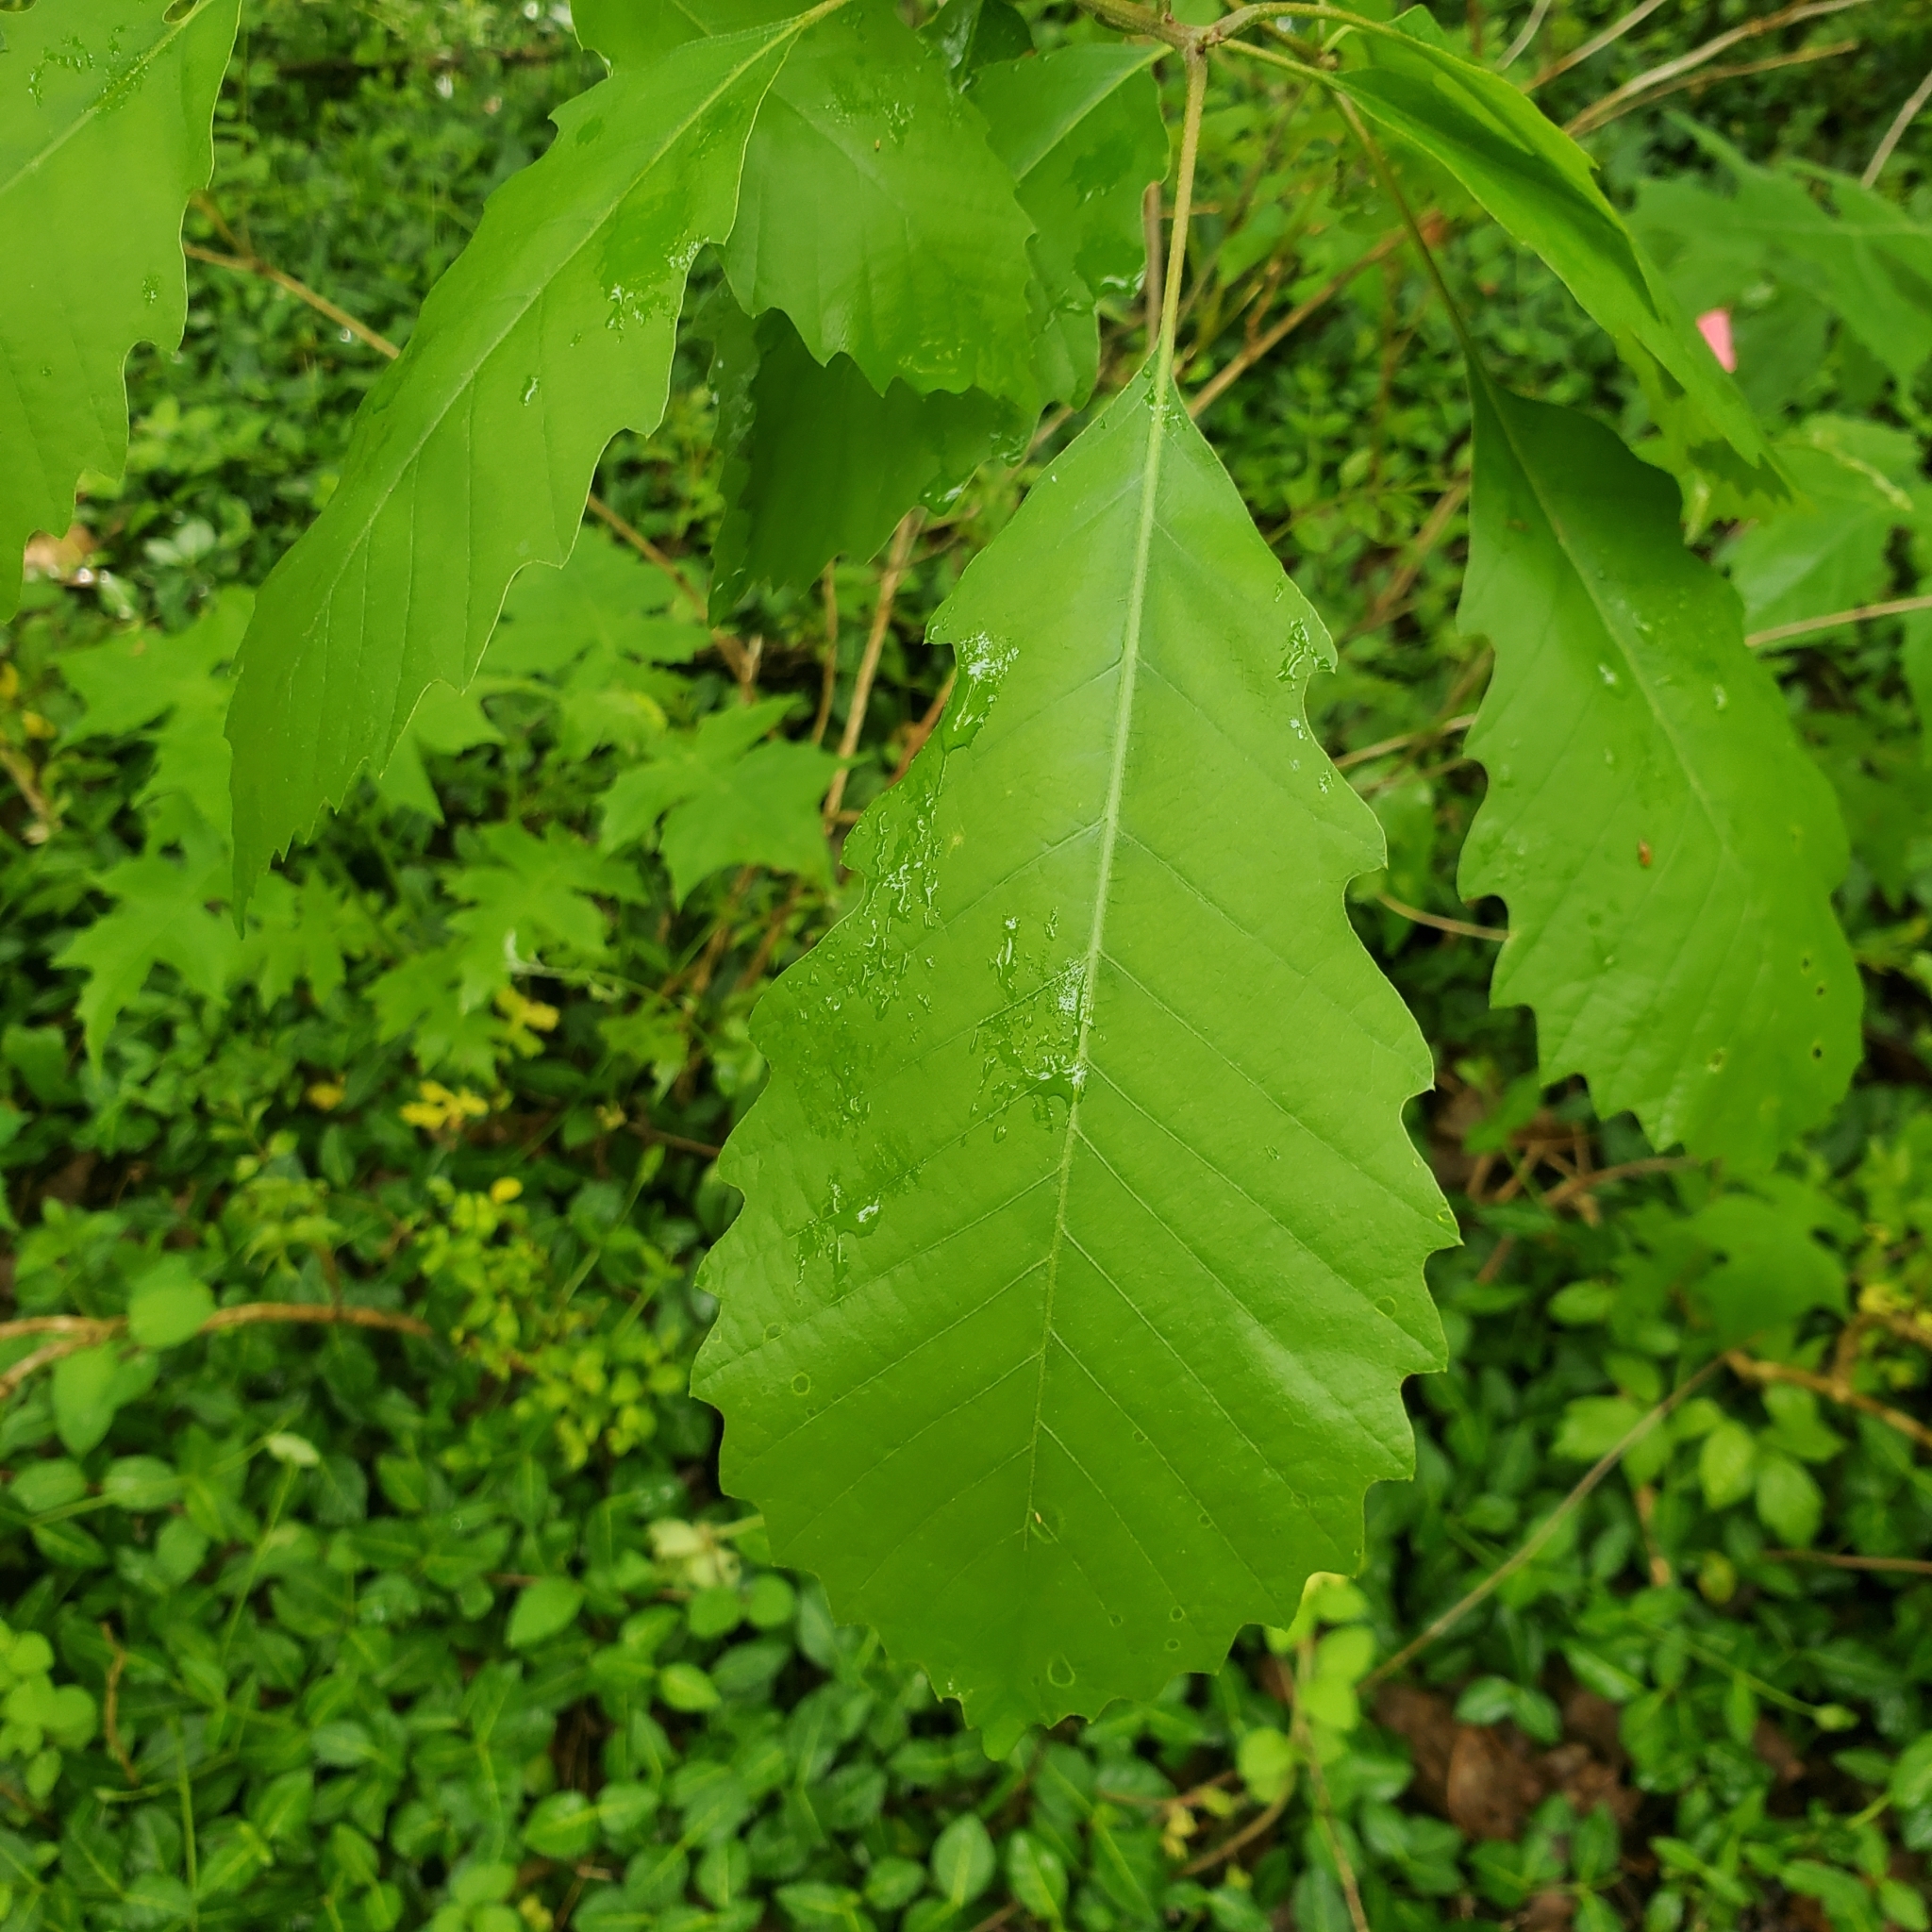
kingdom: Plantae
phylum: Tracheophyta
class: Magnoliopsida
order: Fagales
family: Fagaceae
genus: Quercus
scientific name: Quercus muehlenbergii
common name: Chinkapin oak
